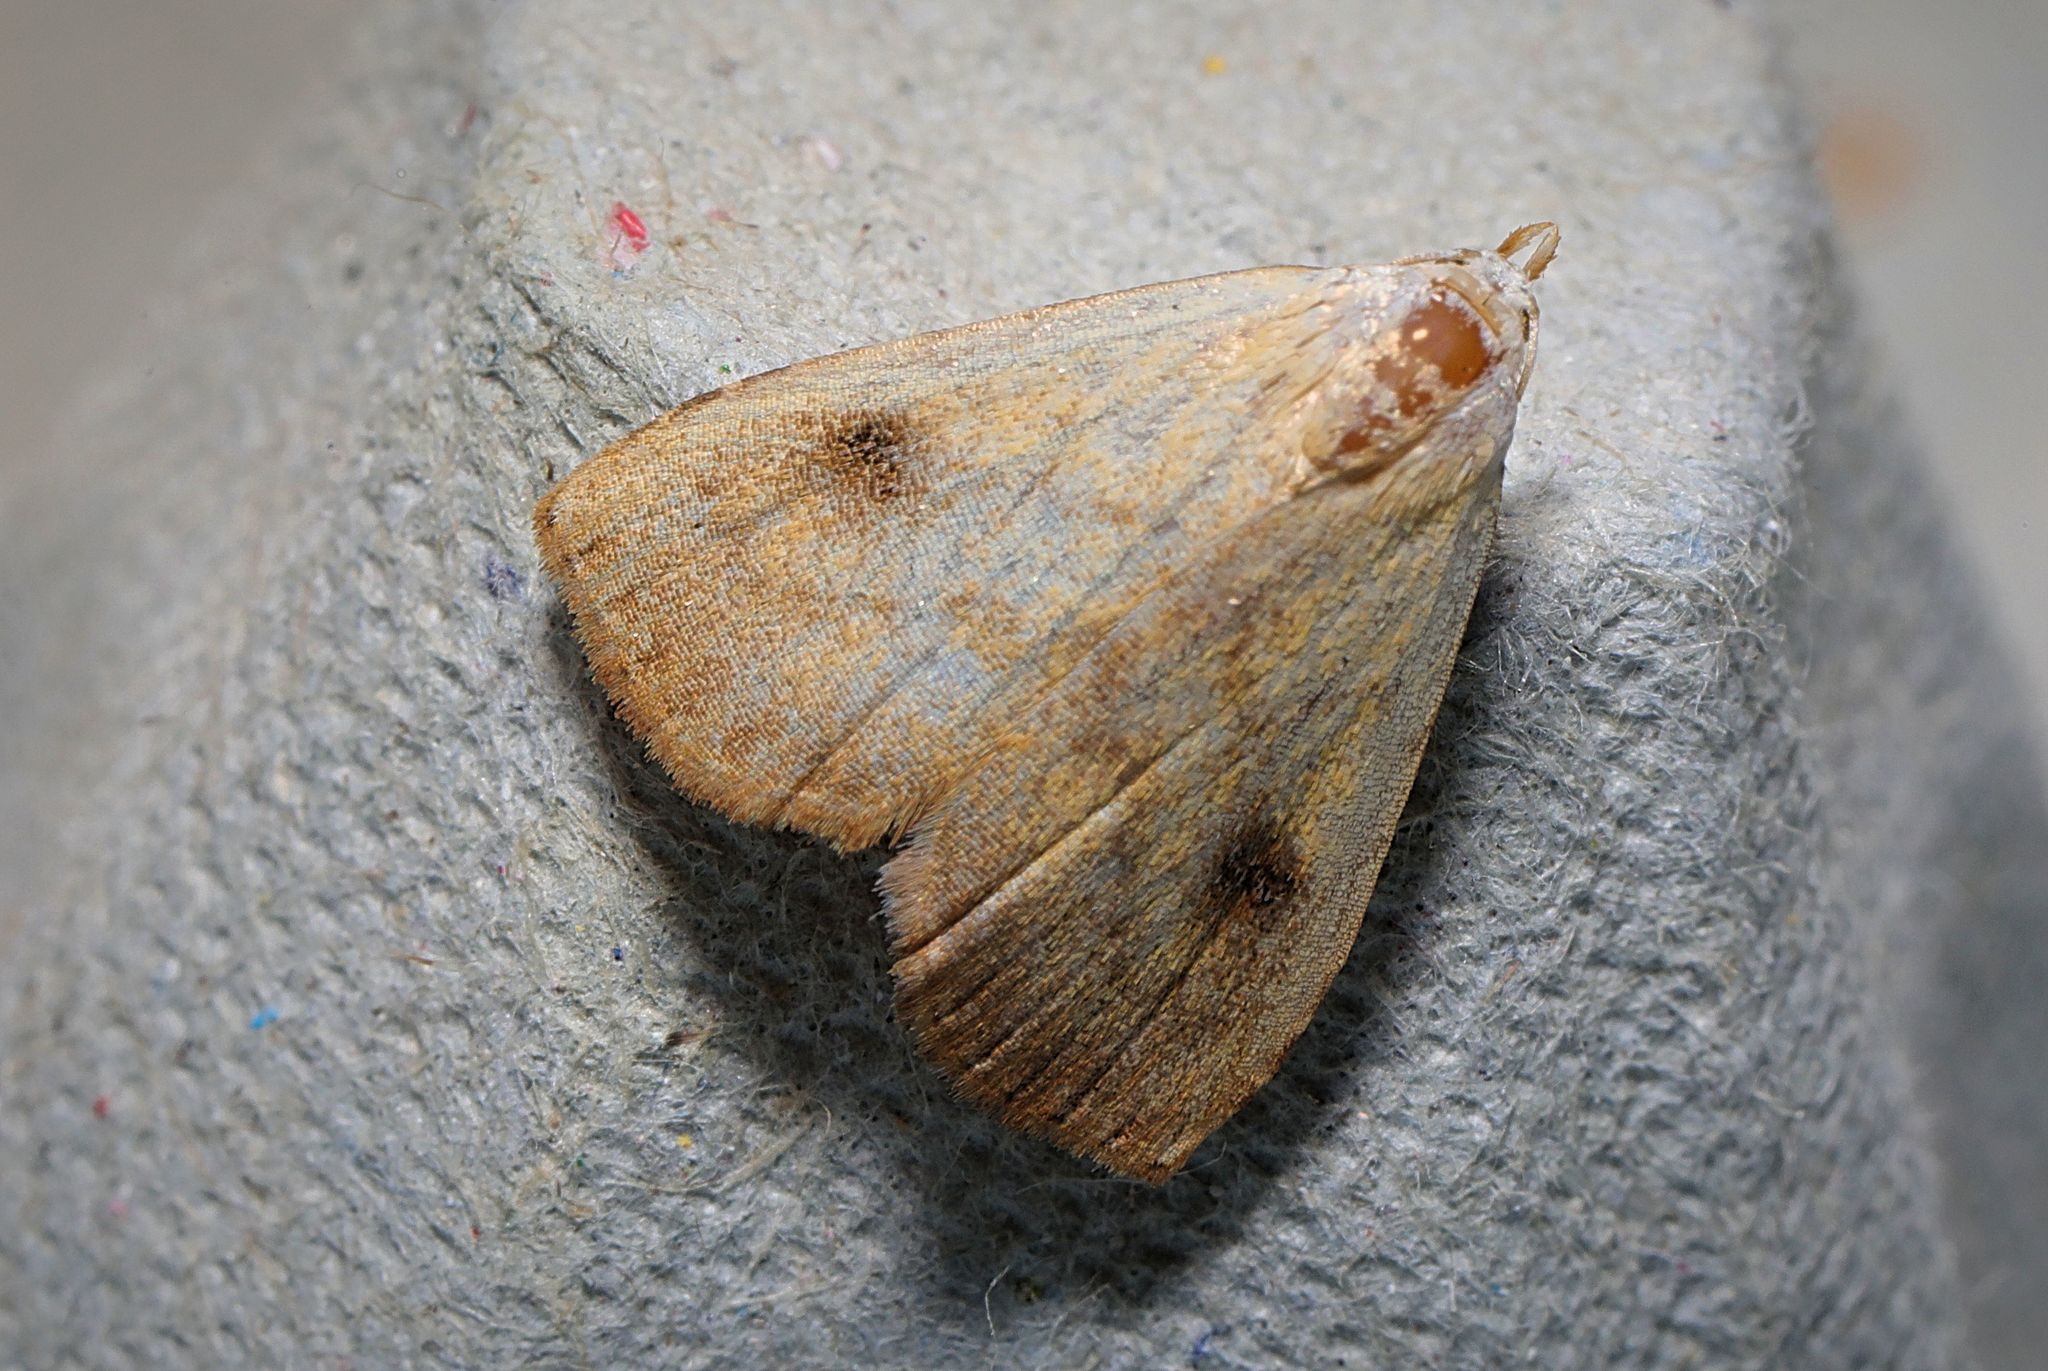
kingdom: Animalia
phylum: Arthropoda
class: Insecta
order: Lepidoptera
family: Erebidae
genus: Rivula
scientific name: Rivula sericealis
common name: Straw dot
